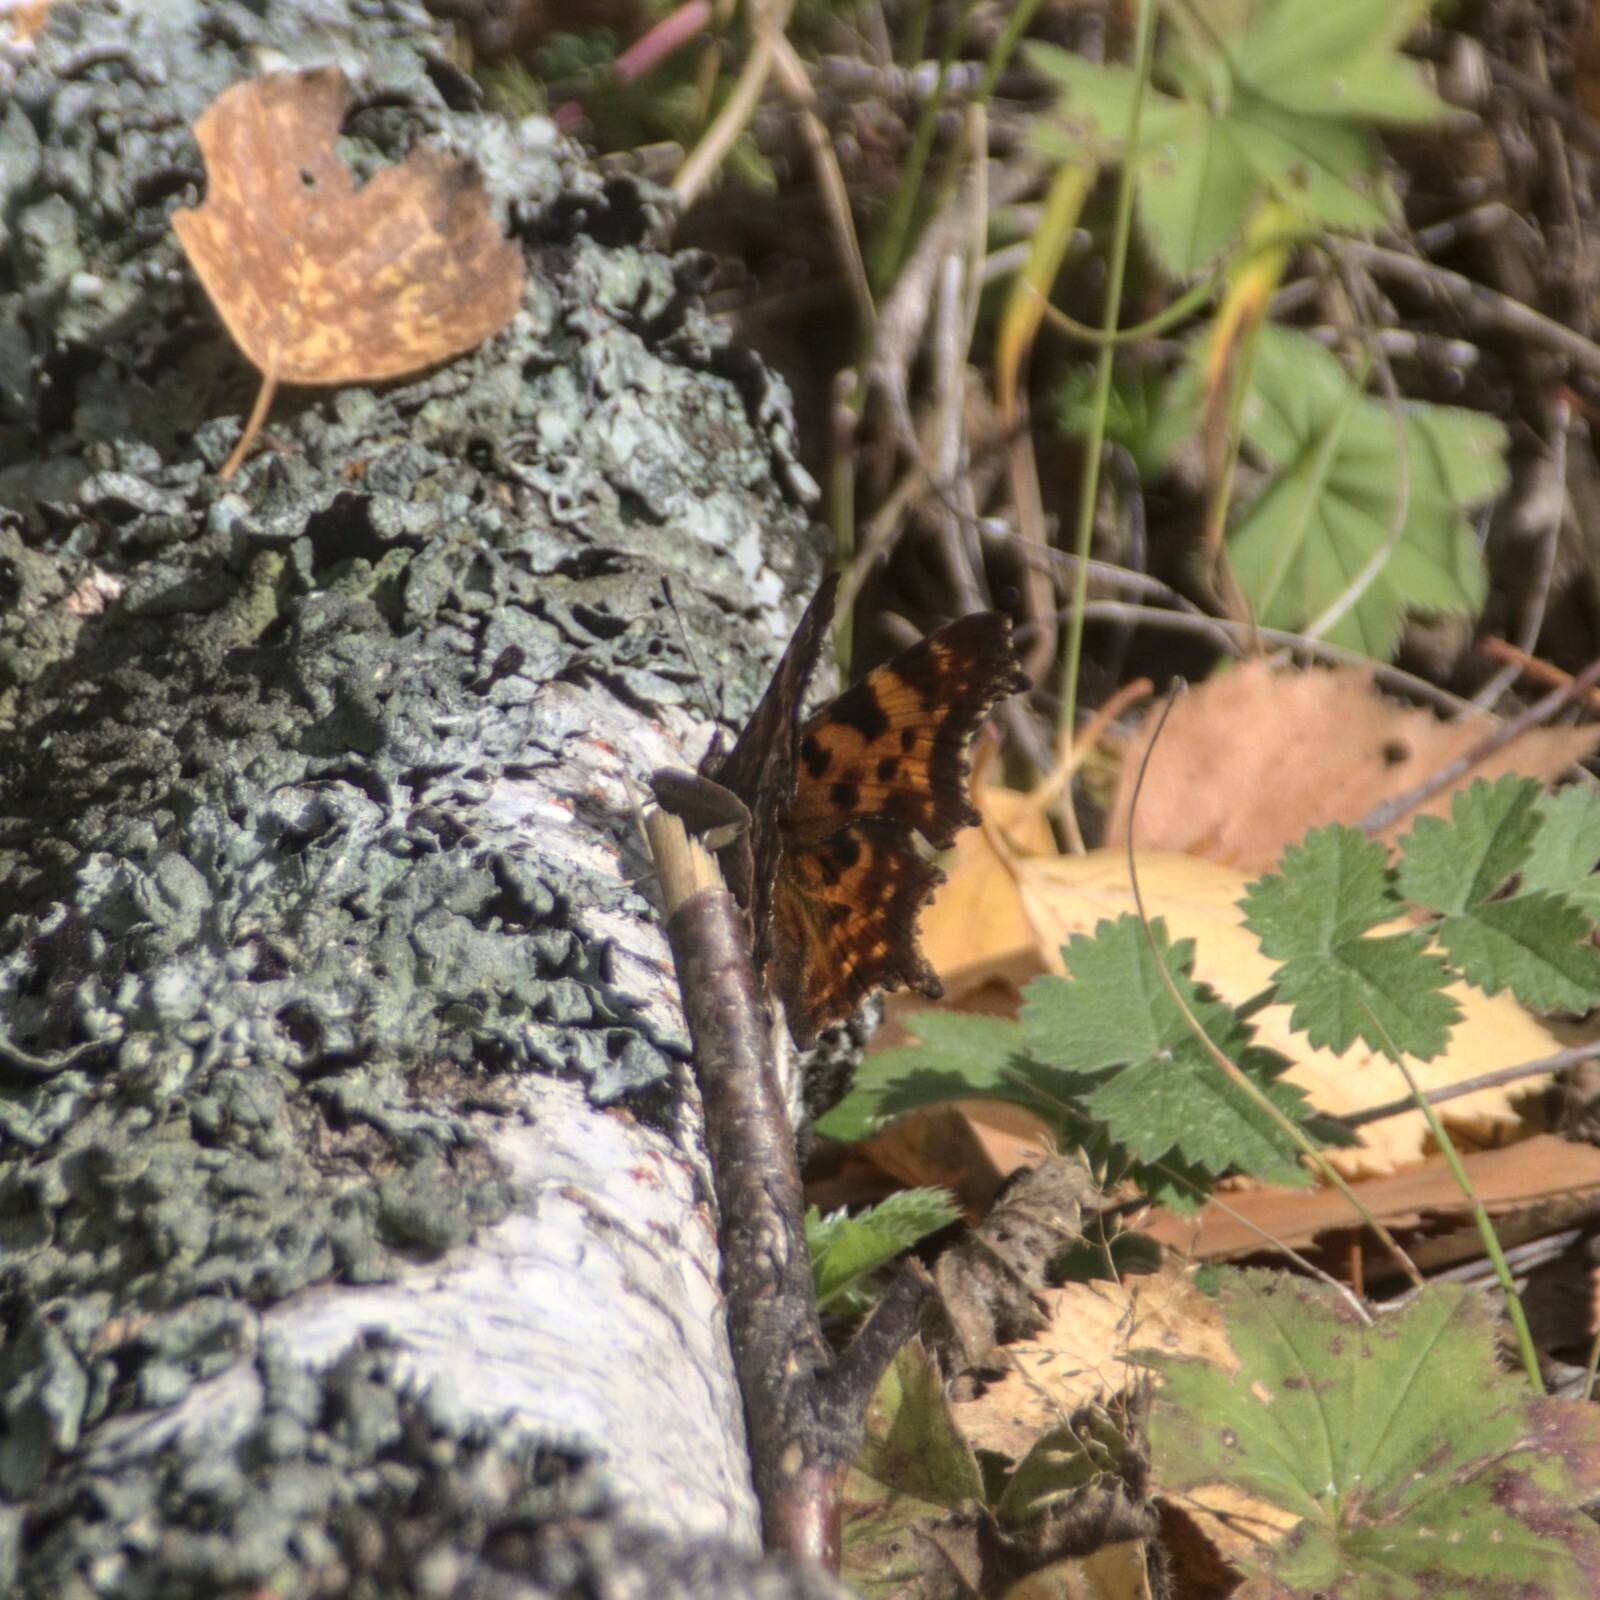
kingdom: Animalia
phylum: Arthropoda
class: Insecta
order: Lepidoptera
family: Nymphalidae
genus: Polygonia
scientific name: Polygonia c-album
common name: Comma
